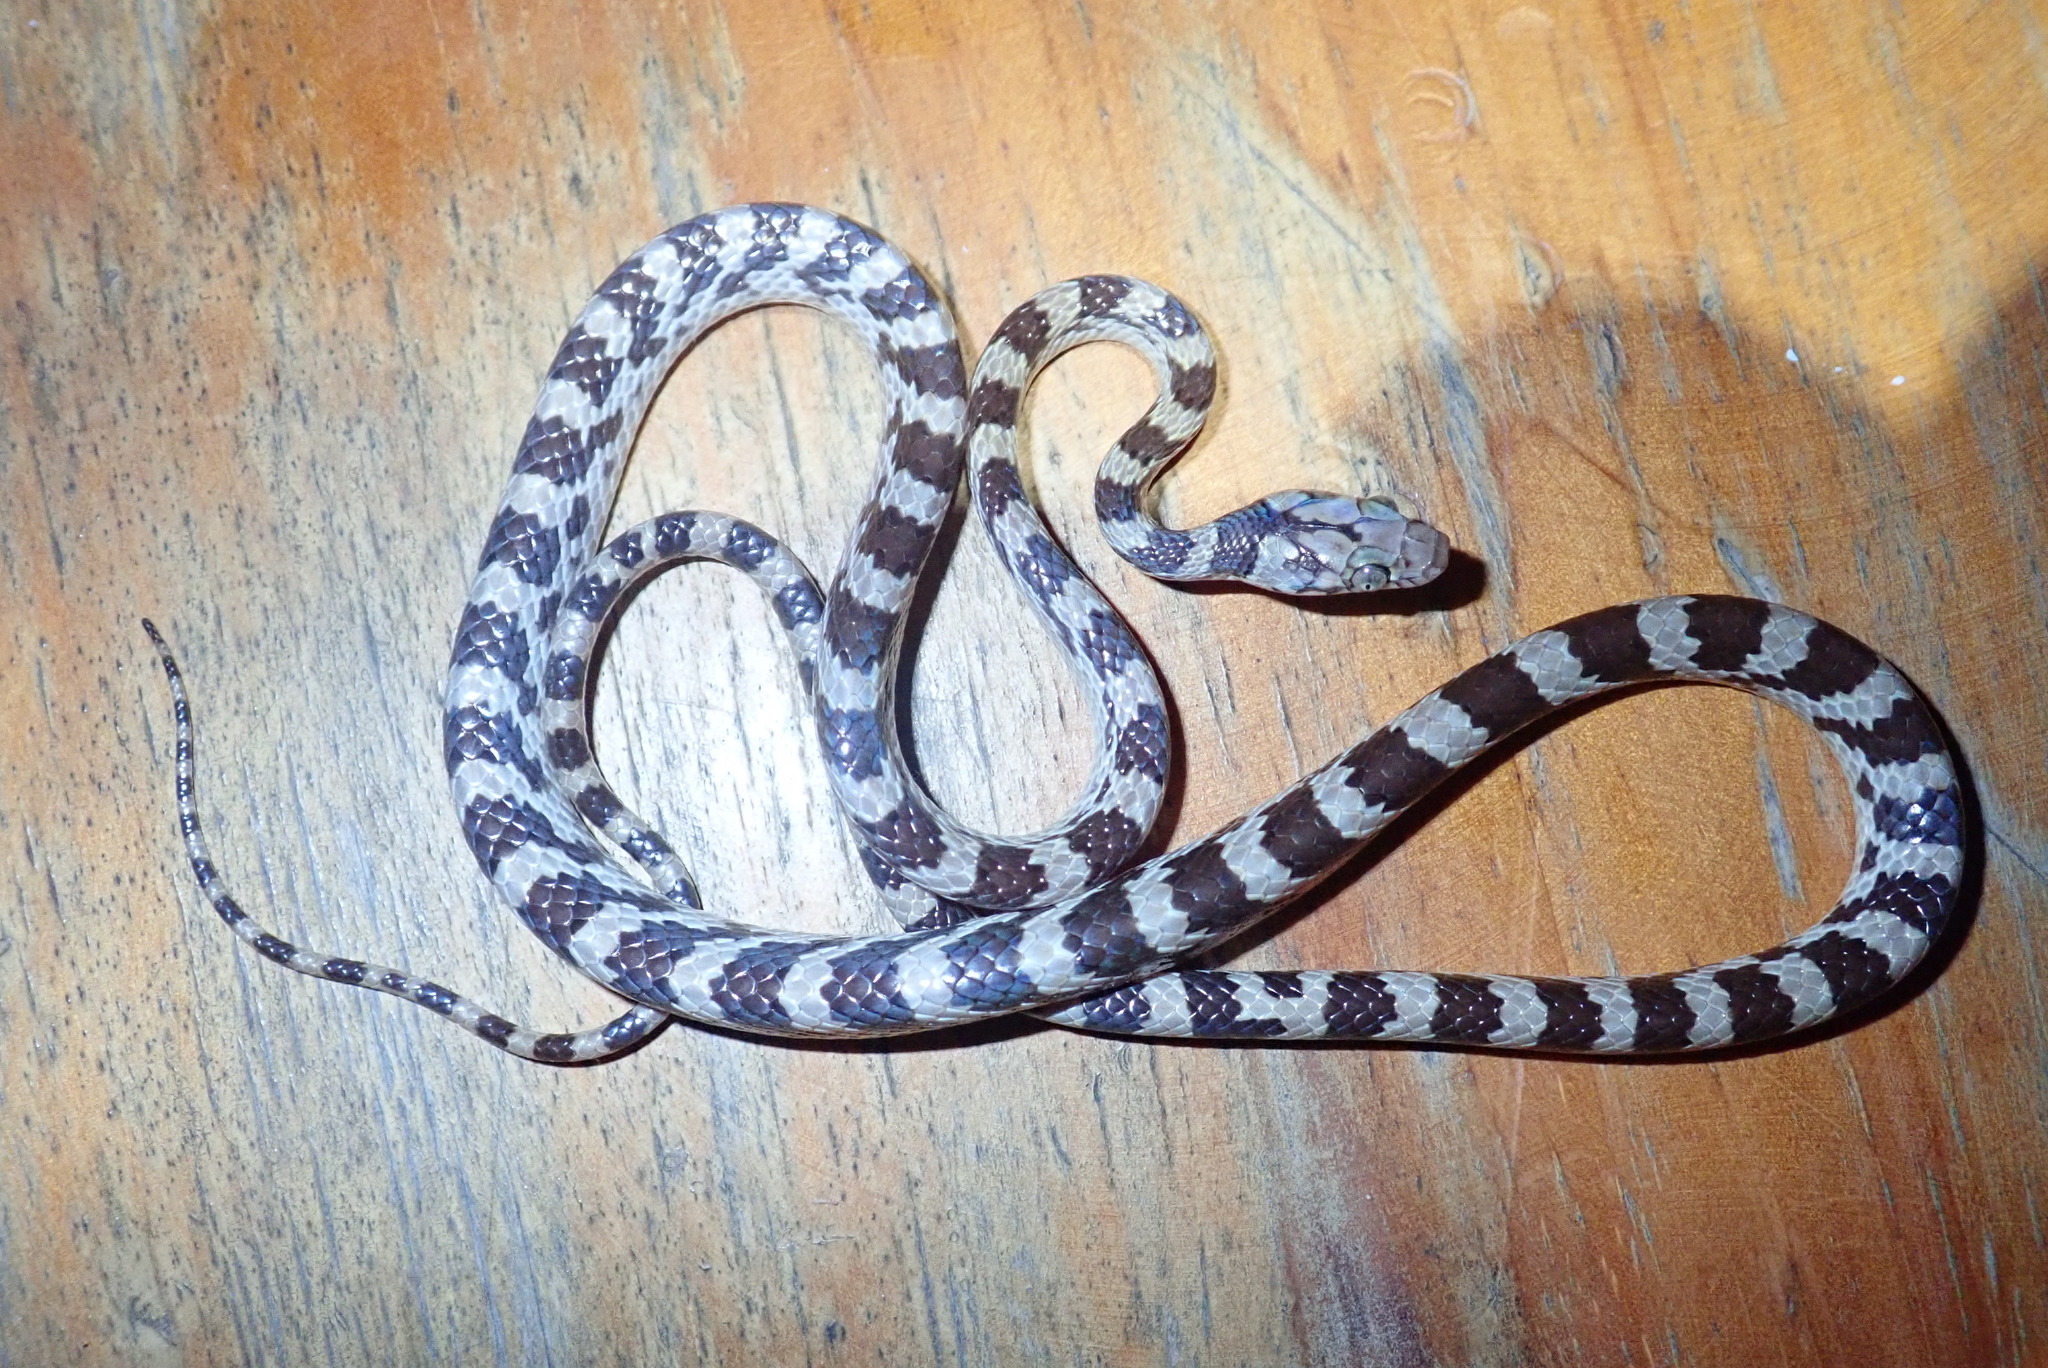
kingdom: Animalia
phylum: Chordata
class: Squamata
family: Pseudoxyrhophiidae
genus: Lycodryas
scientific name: Lycodryas pseudogranuliceps
